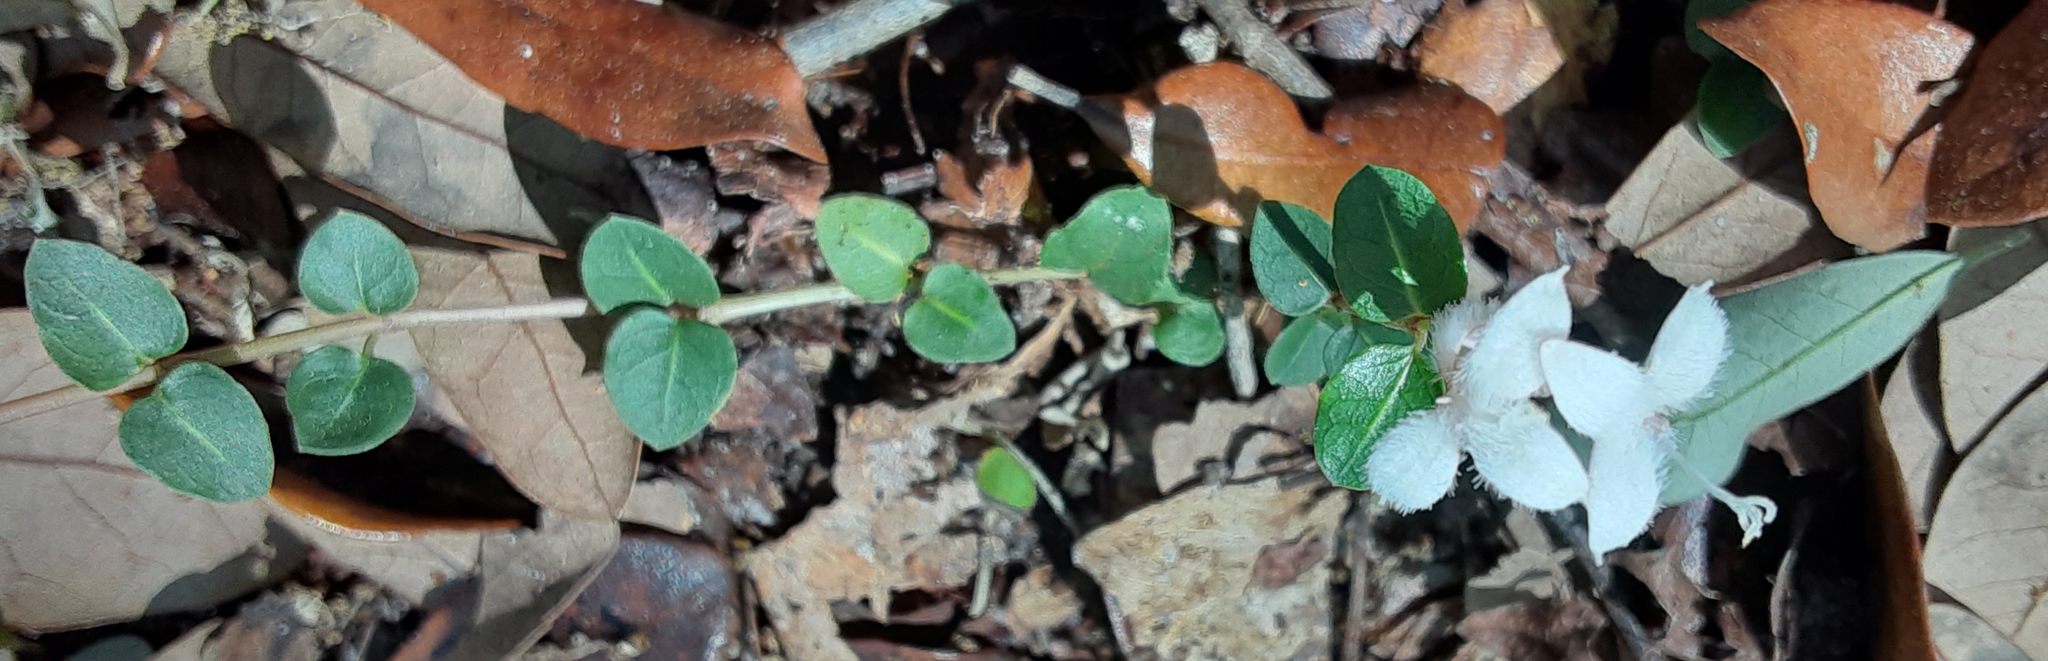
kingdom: Plantae
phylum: Tracheophyta
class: Magnoliopsida
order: Gentianales
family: Rubiaceae
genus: Mitchella
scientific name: Mitchella repens
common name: Partridge-berry
